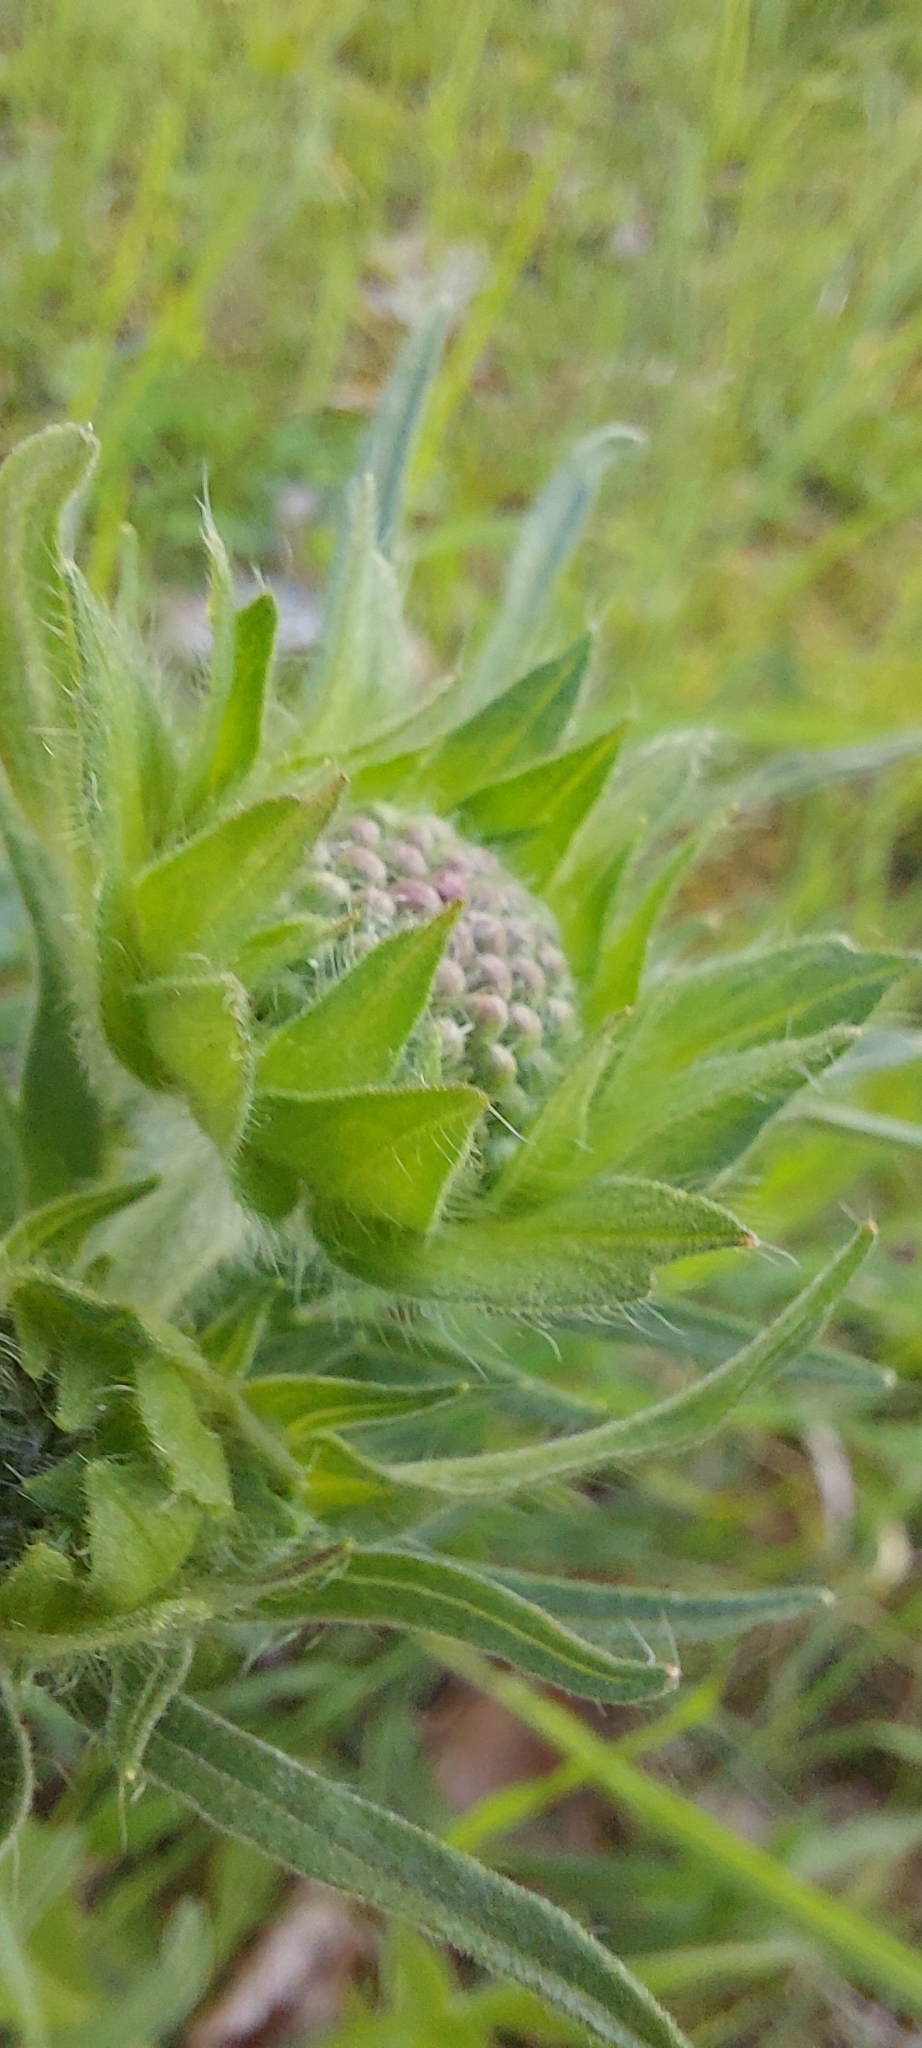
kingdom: Plantae
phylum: Tracheophyta
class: Magnoliopsida
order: Dipsacales
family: Caprifoliaceae
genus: Knautia
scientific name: Knautia arvensis
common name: Field scabiosa
